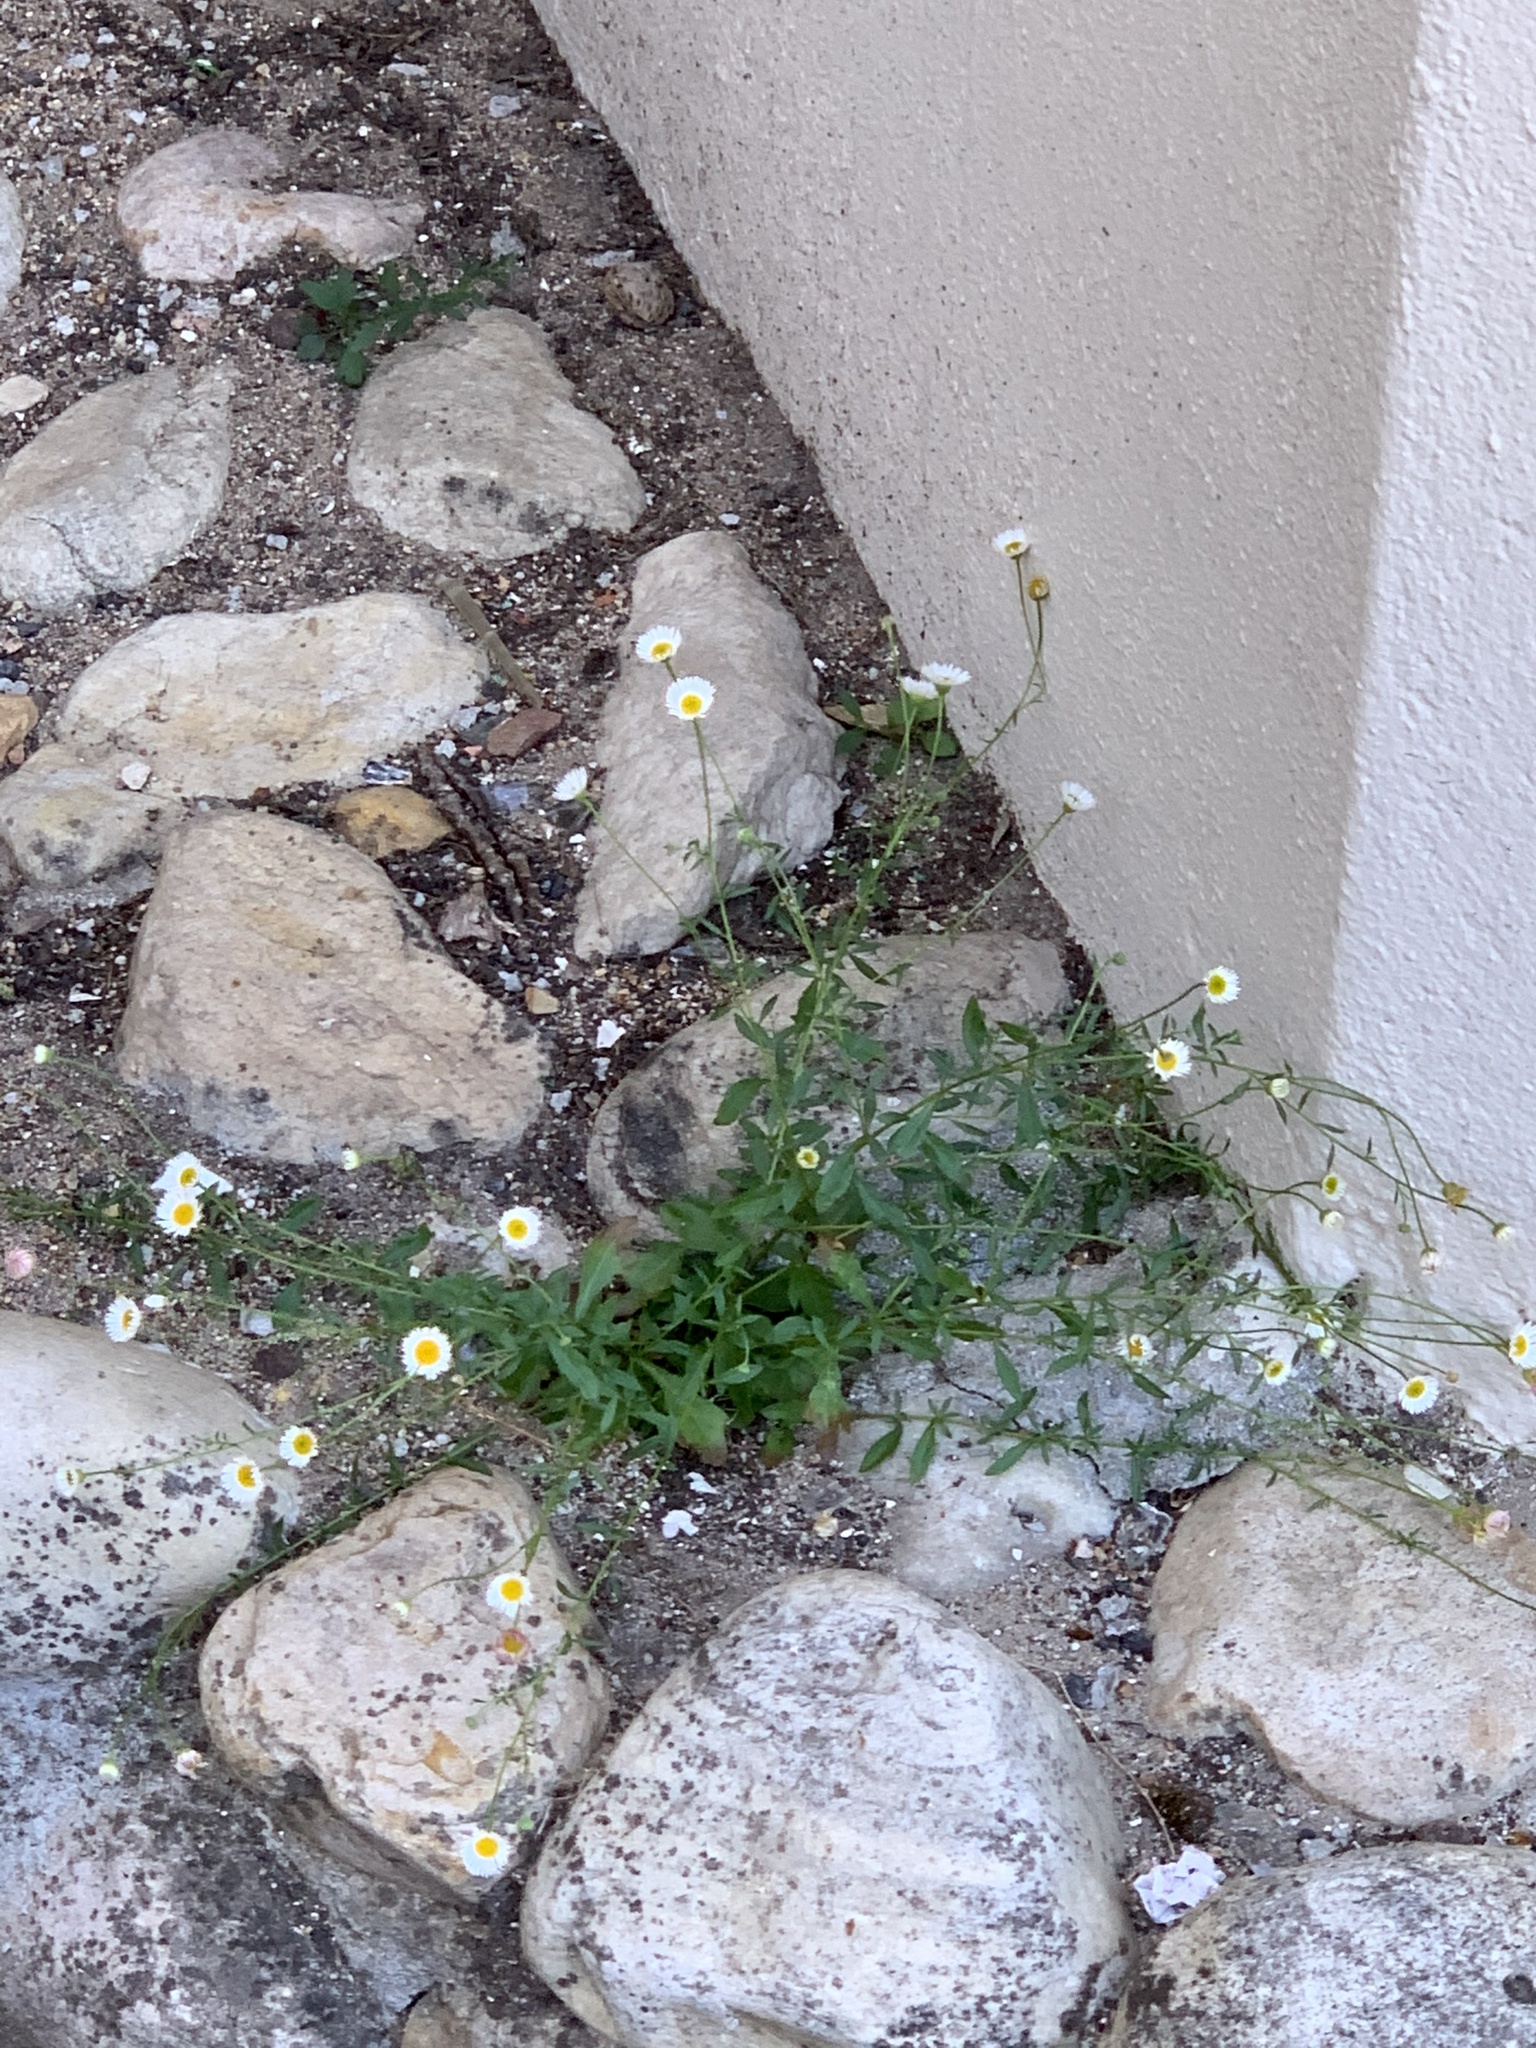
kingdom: Plantae
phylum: Tracheophyta
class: Magnoliopsida
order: Asterales
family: Asteraceae
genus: Erigeron
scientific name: Erigeron karvinskianus
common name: Mexican fleabane
